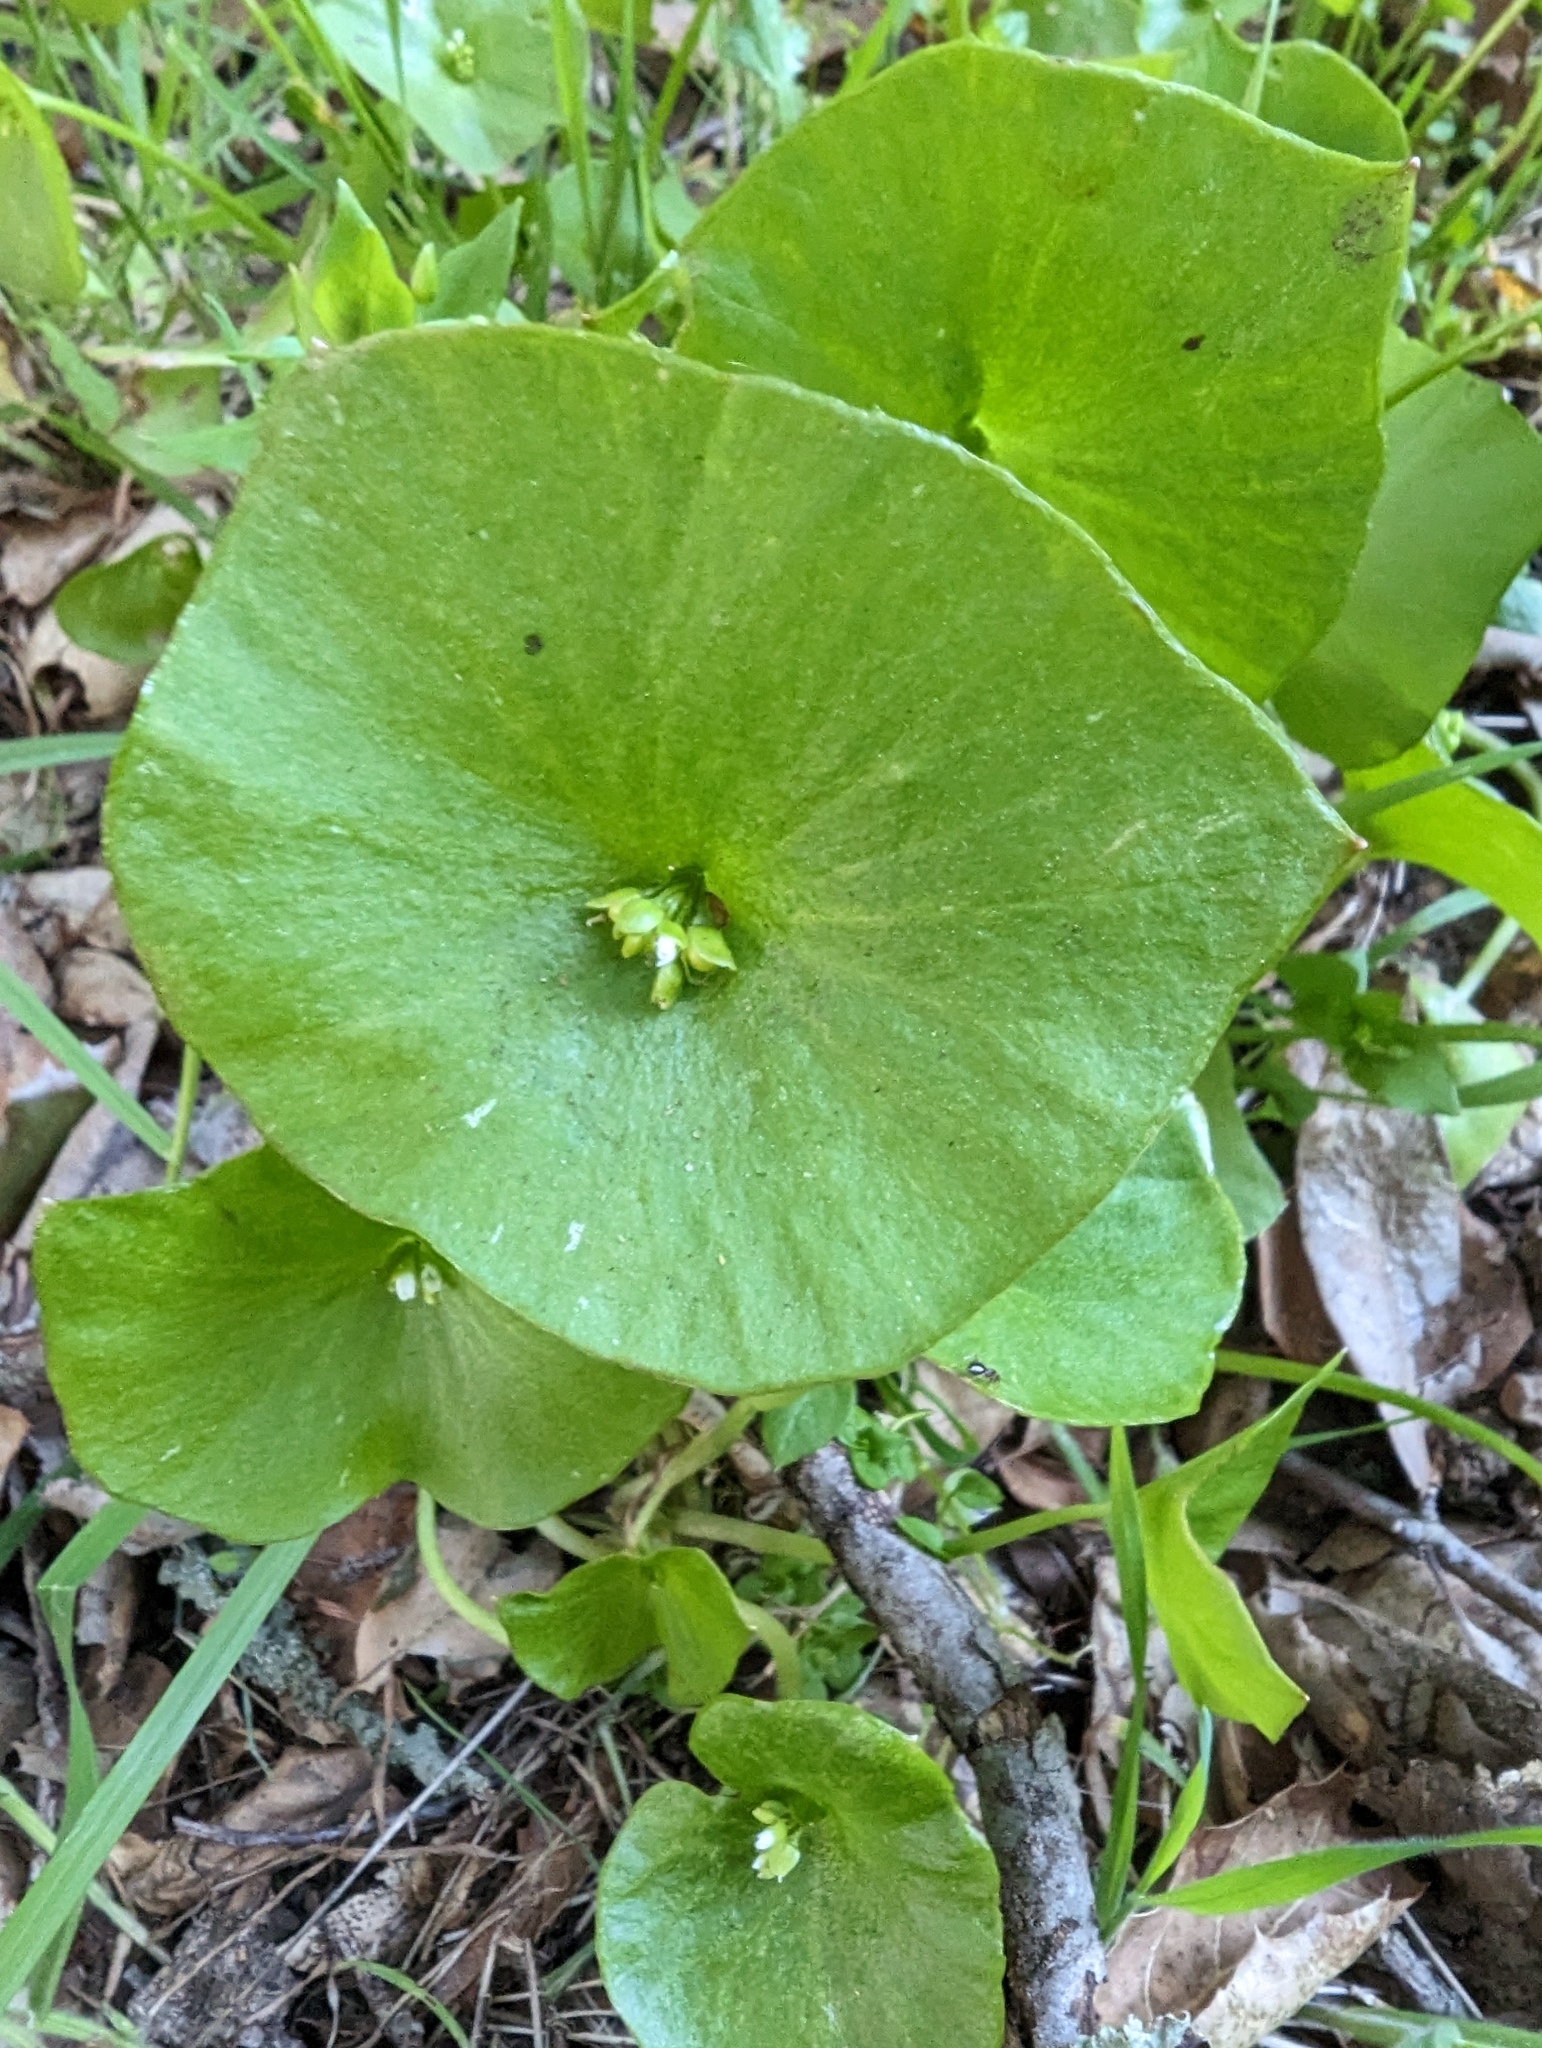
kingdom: Plantae
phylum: Tracheophyta
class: Magnoliopsida
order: Caryophyllales
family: Montiaceae
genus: Claytonia
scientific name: Claytonia perfoliata
